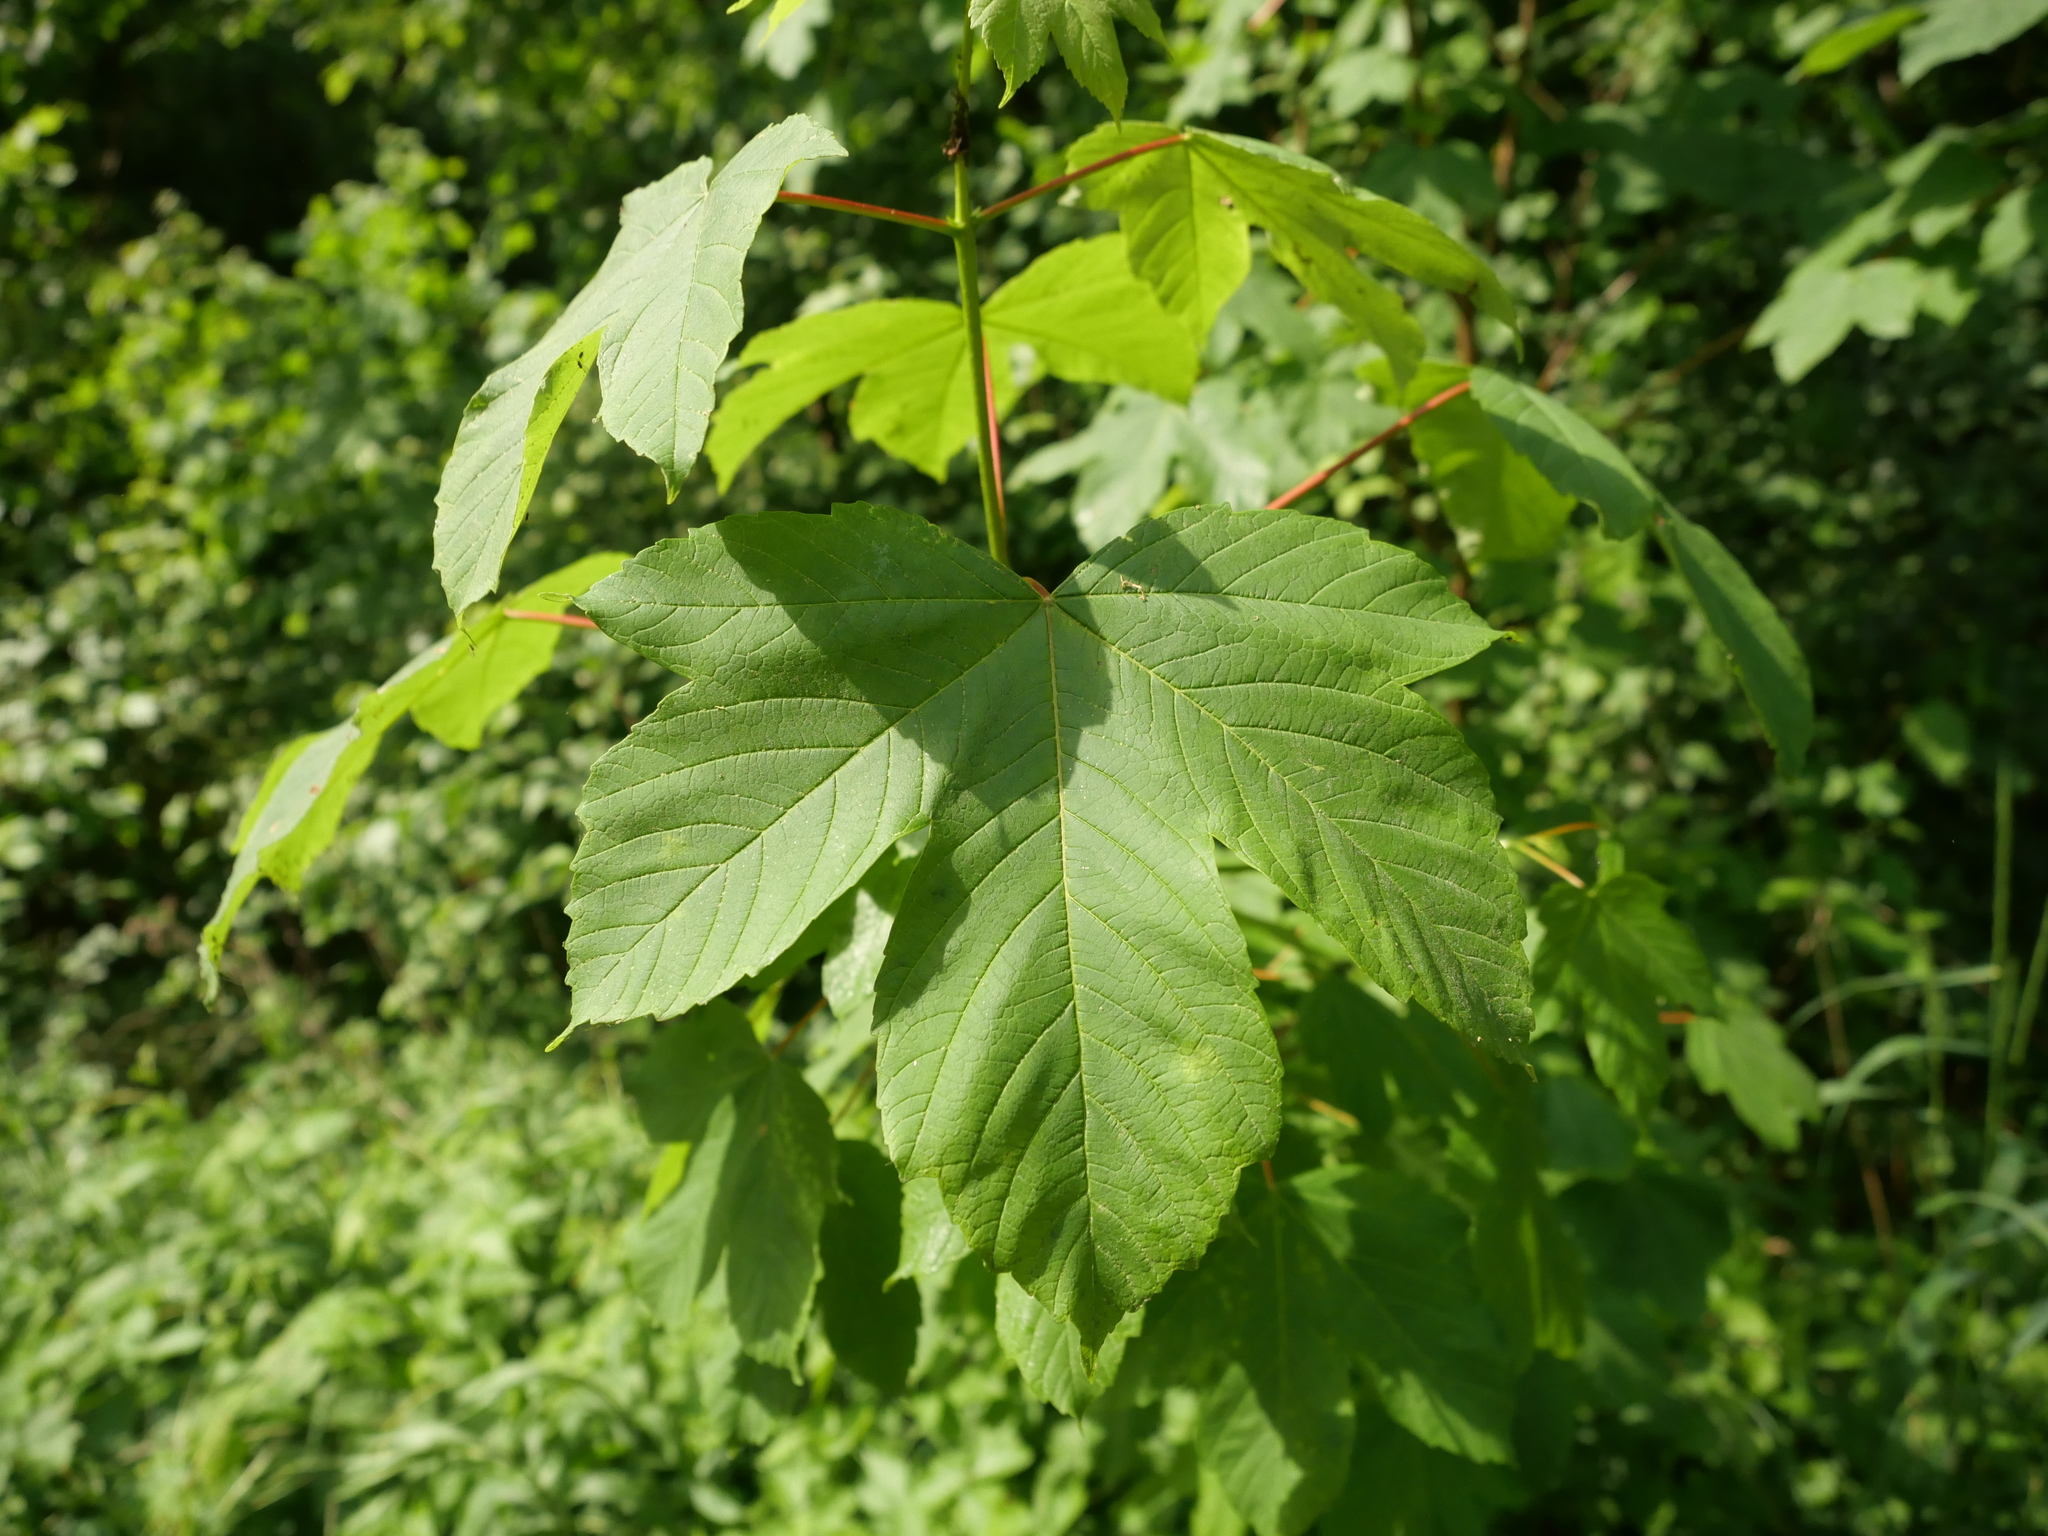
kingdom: Plantae
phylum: Tracheophyta
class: Magnoliopsida
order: Sapindales
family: Sapindaceae
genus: Acer
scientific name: Acer pseudoplatanus
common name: Sycamore
